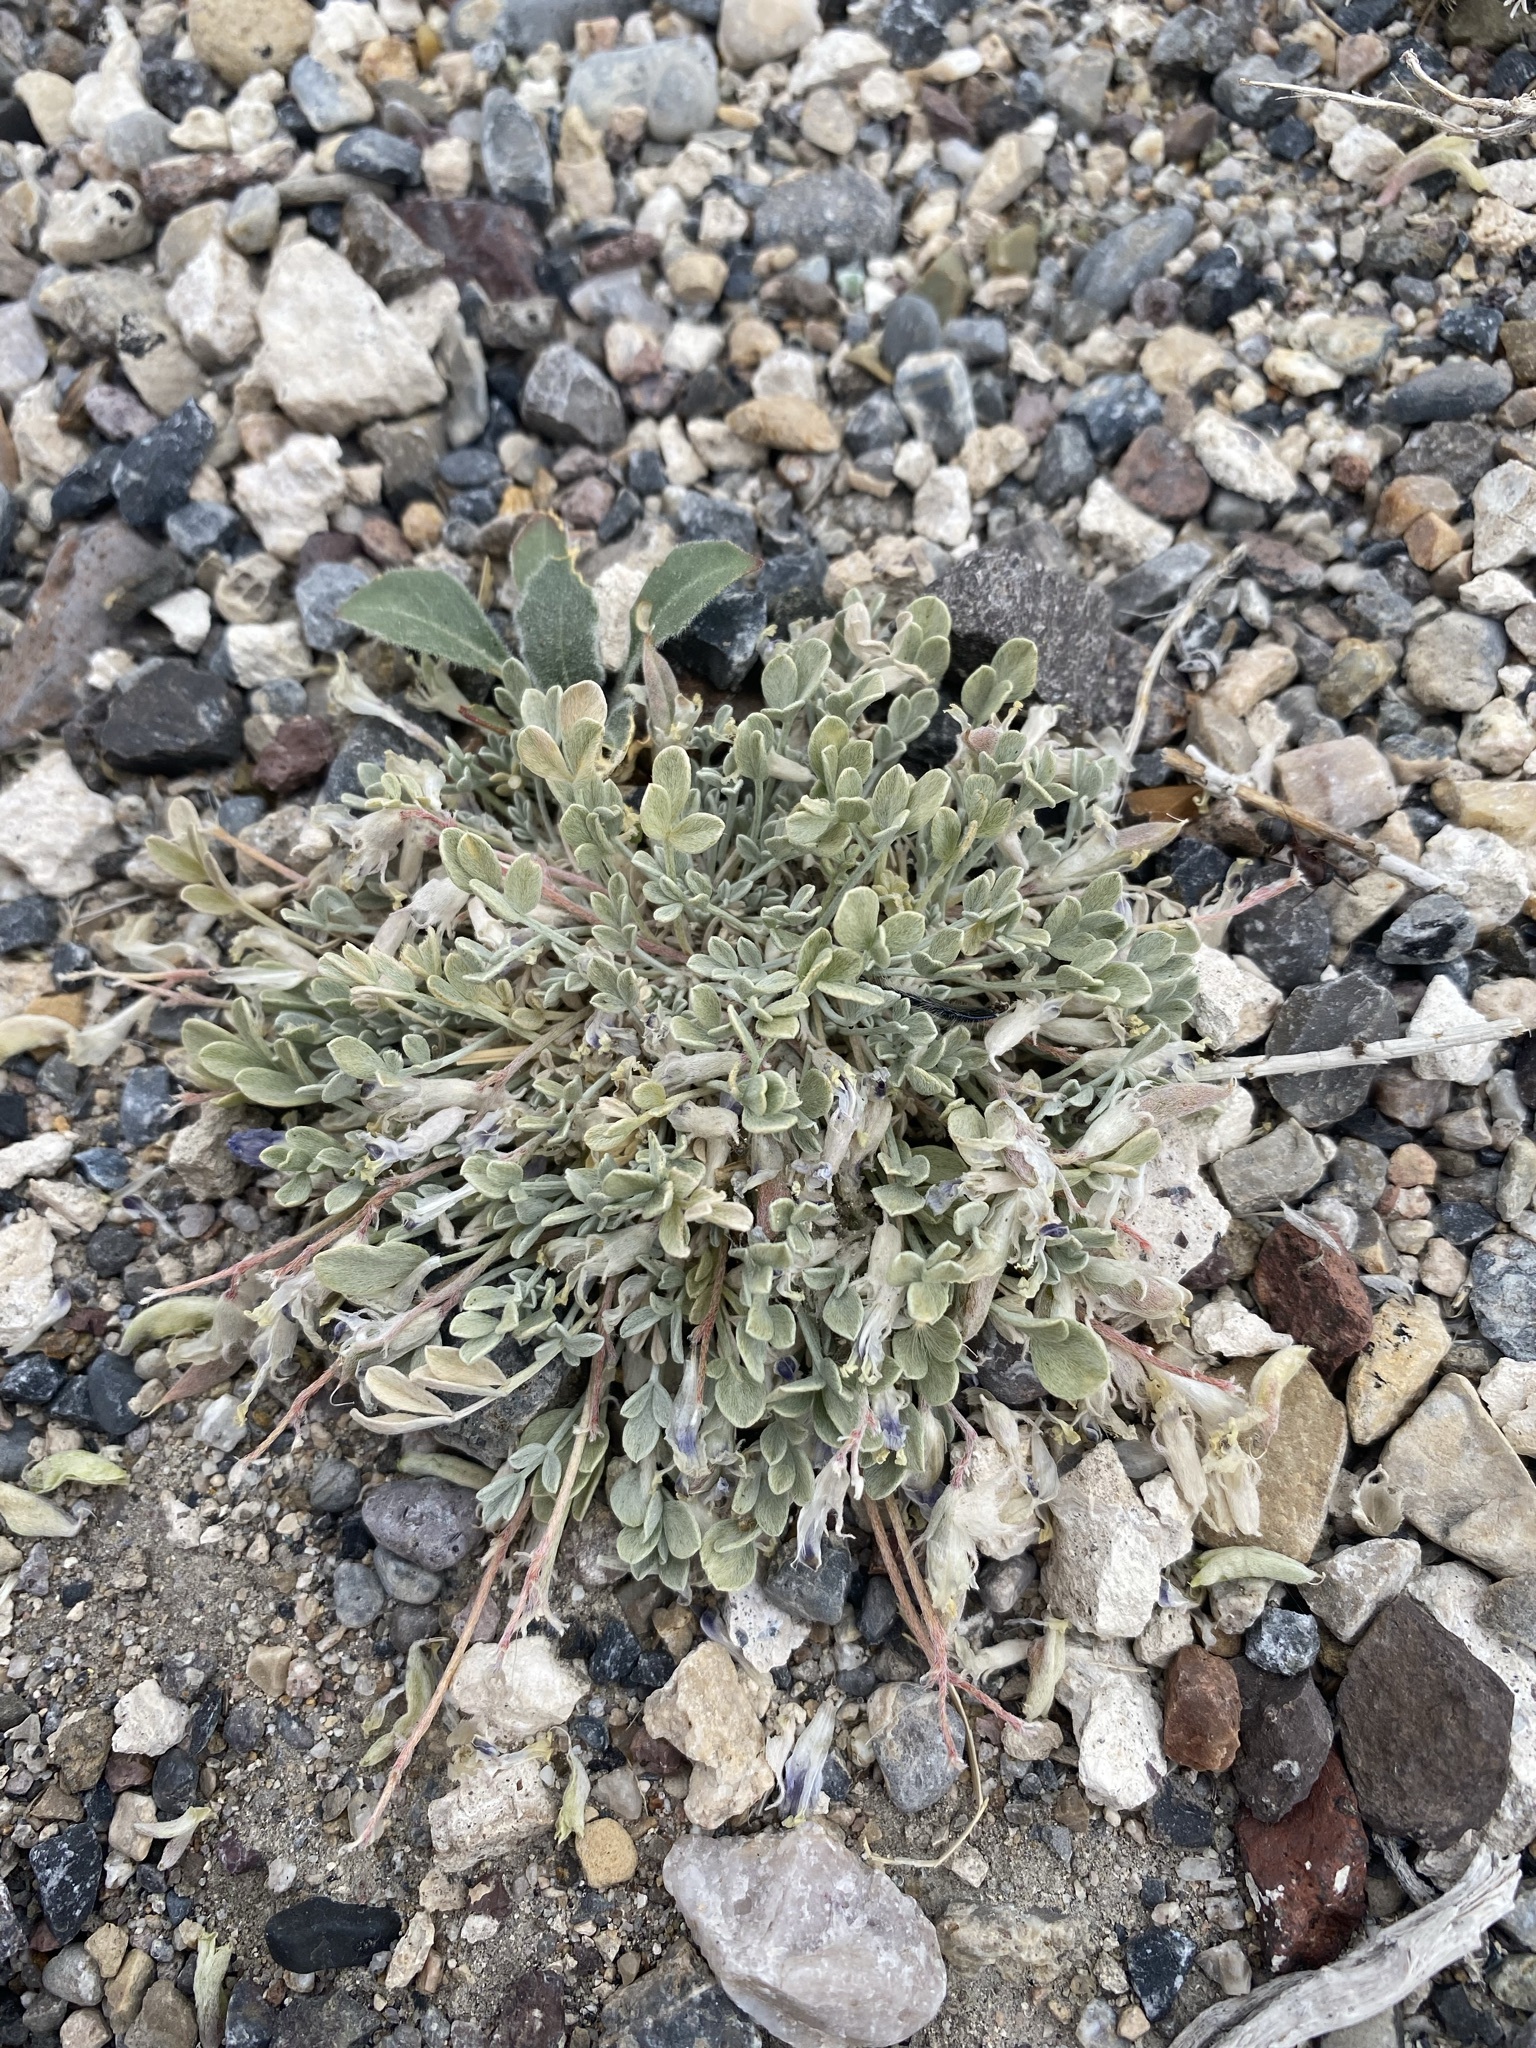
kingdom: Plantae
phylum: Tracheophyta
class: Magnoliopsida
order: Fabales
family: Fabaceae
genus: Astragalus
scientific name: Astragalus calycosus
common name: King's milkvetch
